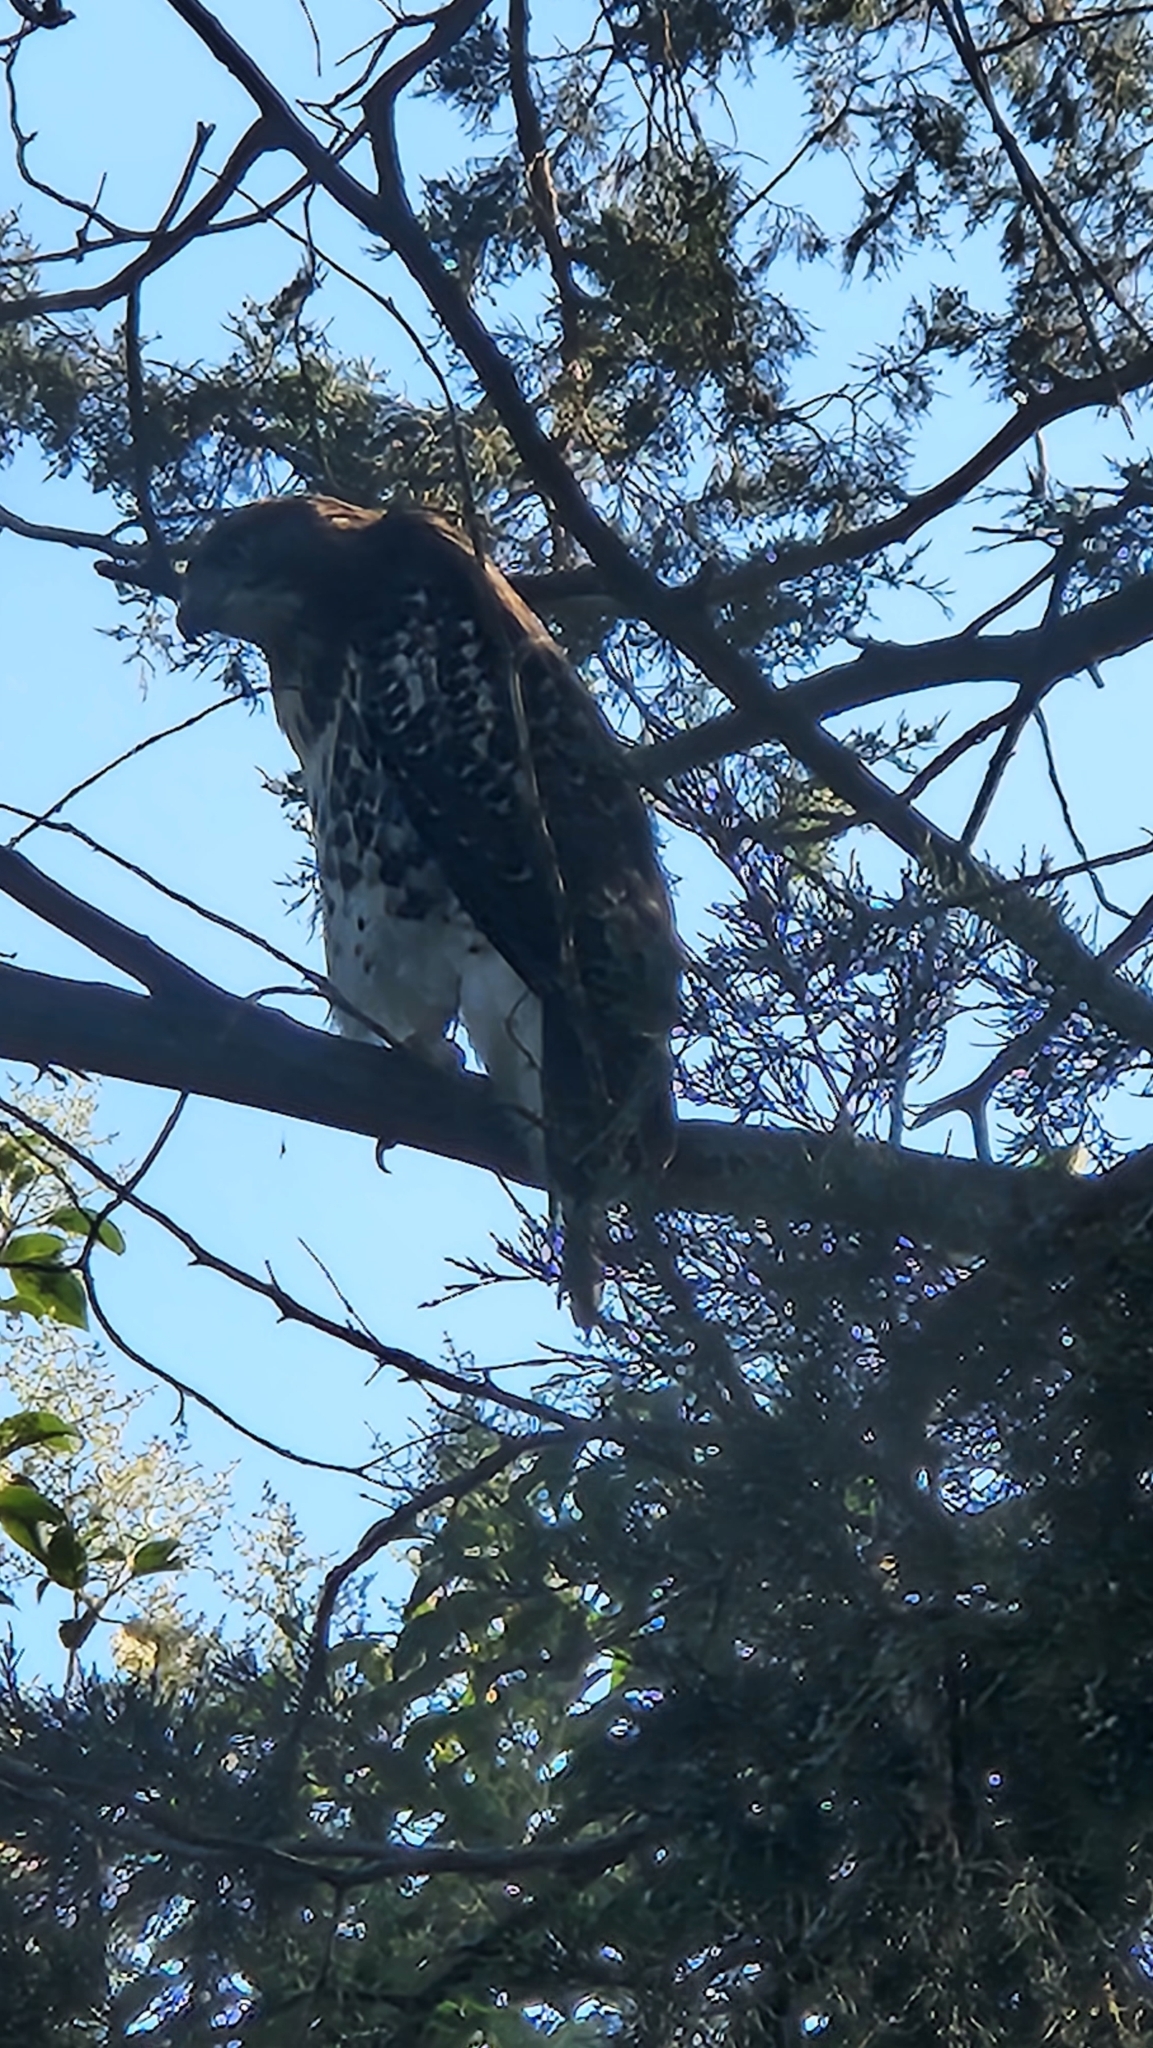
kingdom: Animalia
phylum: Chordata
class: Aves
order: Accipitriformes
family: Accipitridae
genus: Buteo
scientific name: Buteo jamaicensis
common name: Red-tailed hawk
